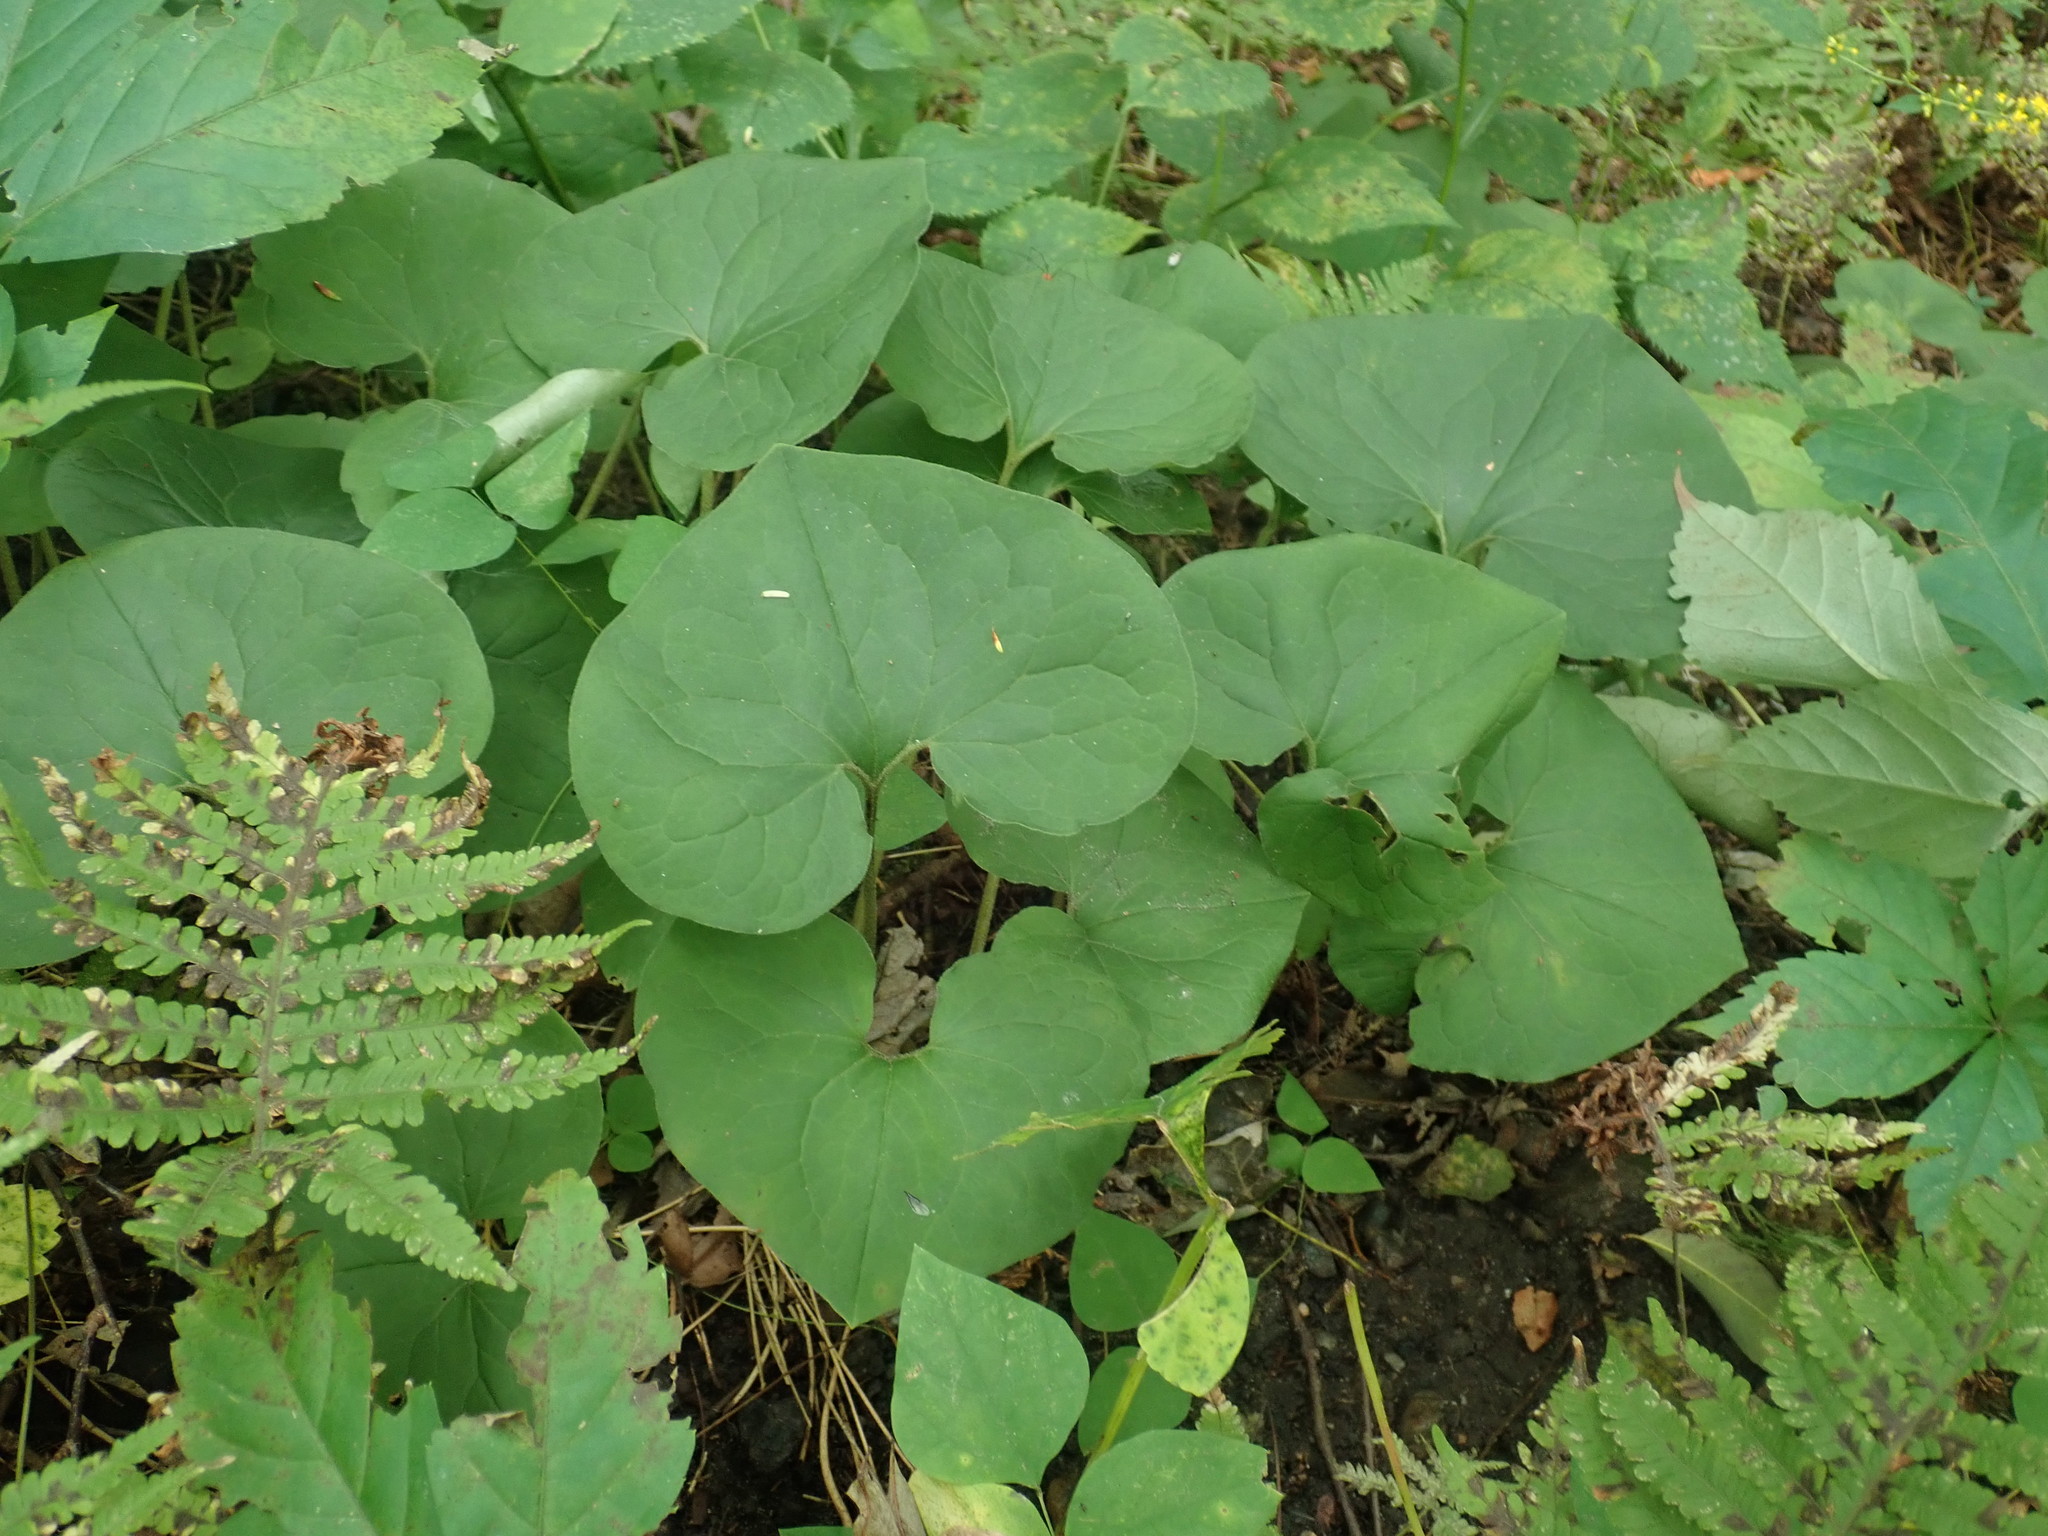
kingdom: Plantae
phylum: Tracheophyta
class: Magnoliopsida
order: Piperales
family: Aristolochiaceae
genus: Asarum
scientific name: Asarum canadense
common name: Wild ginger
